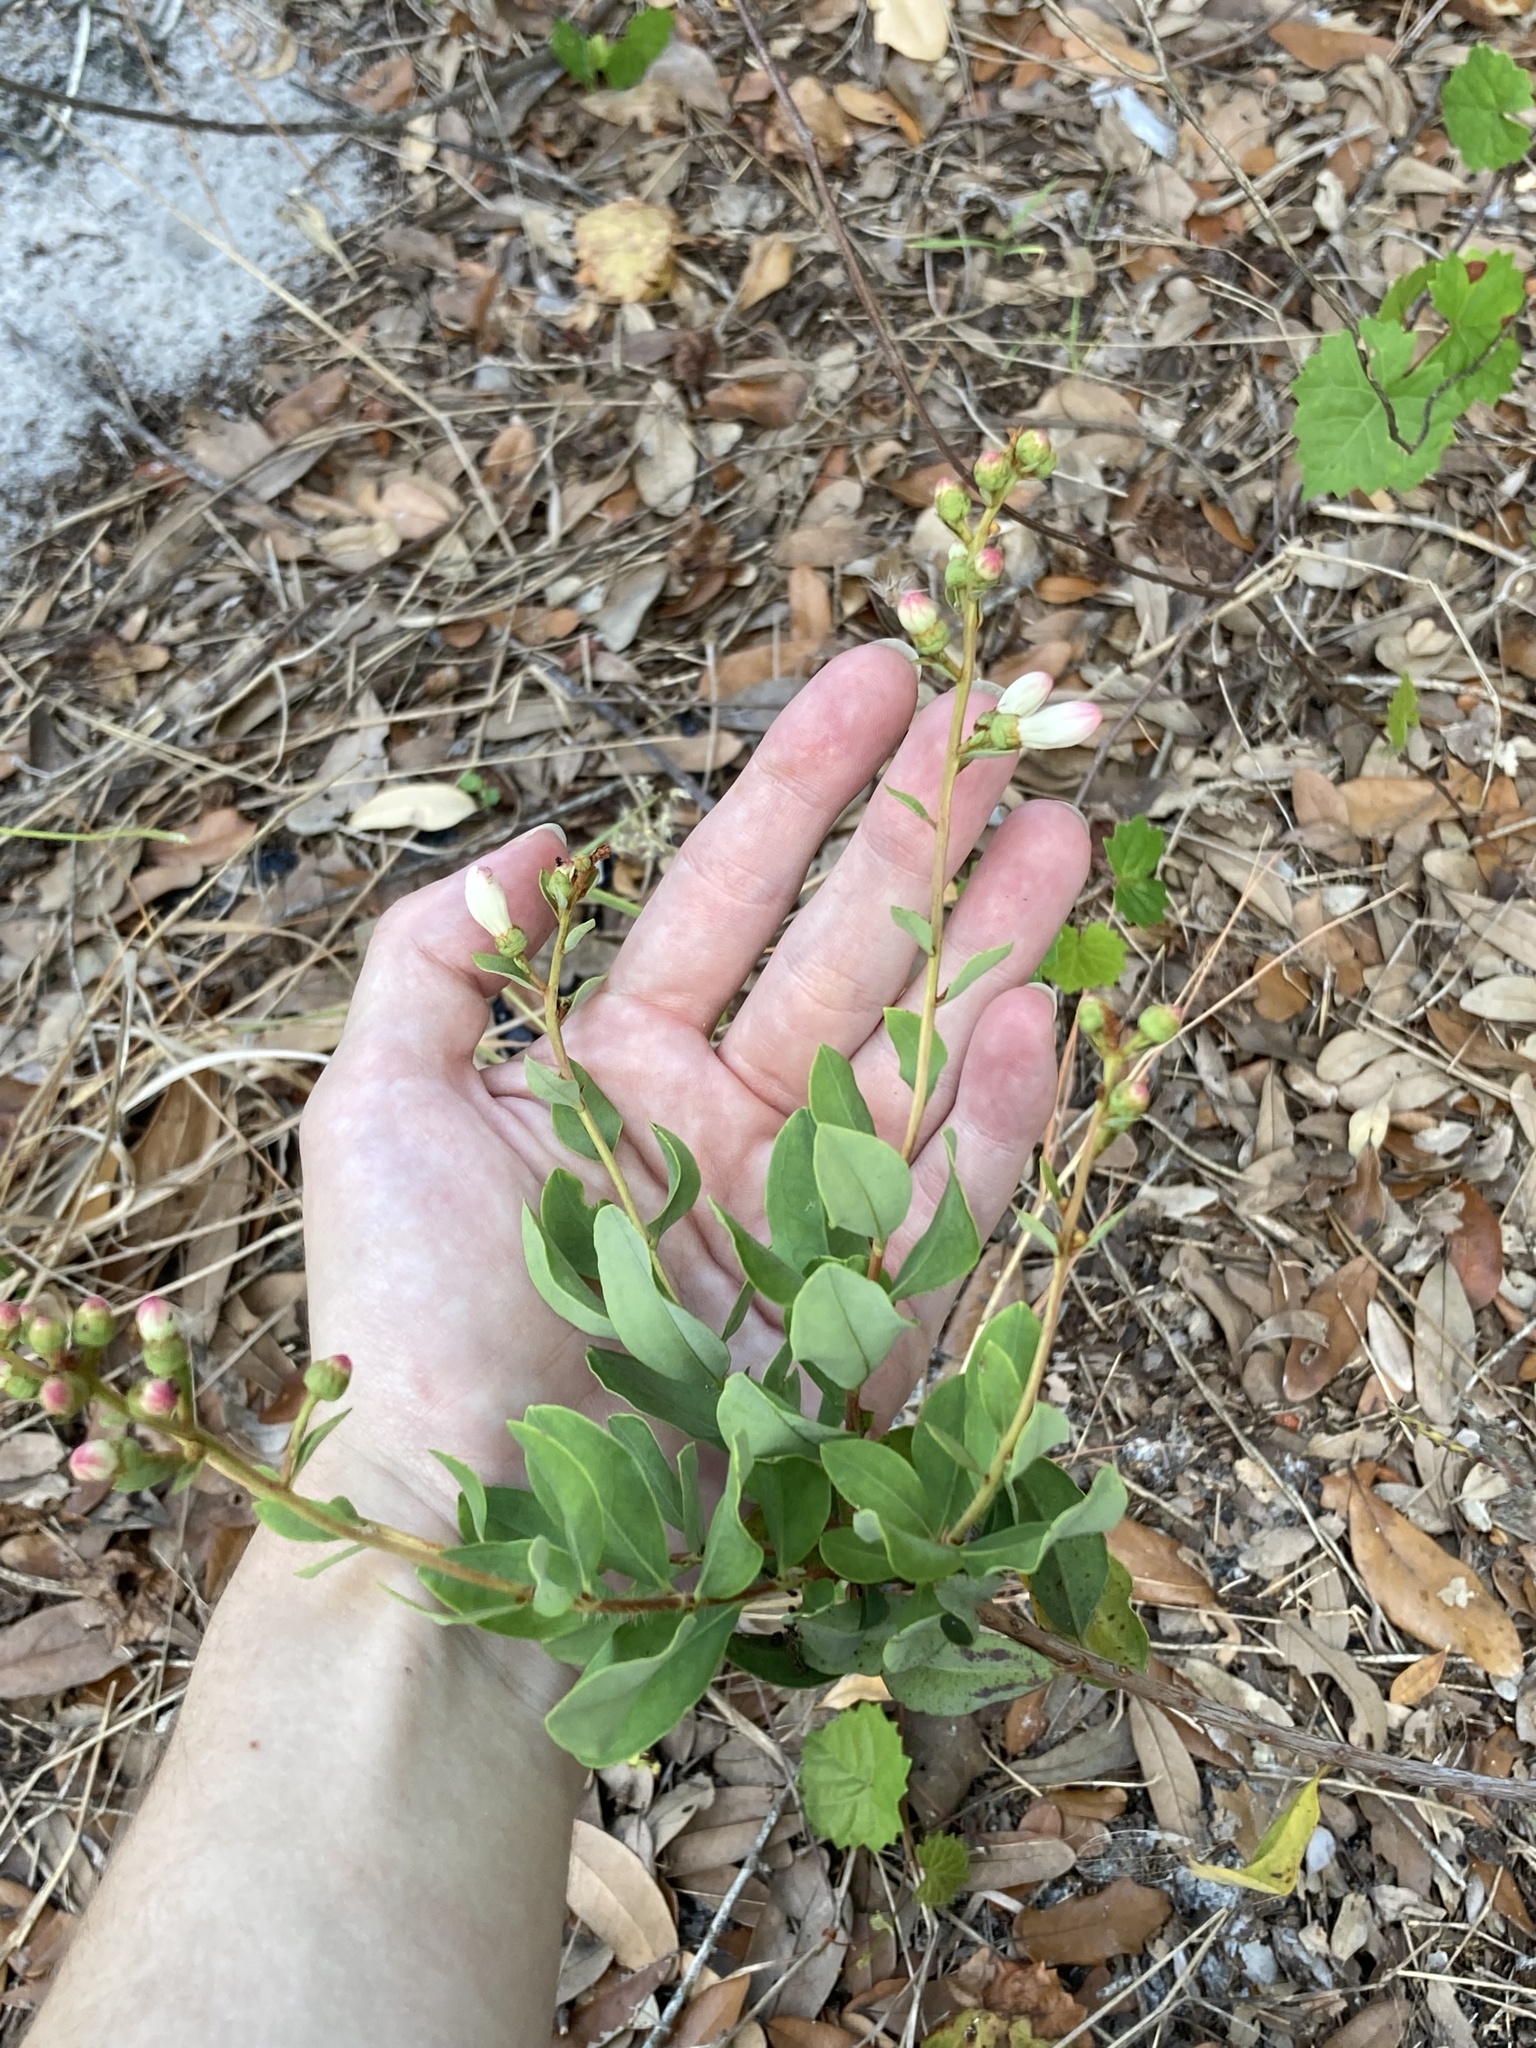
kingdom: Plantae
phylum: Tracheophyta
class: Magnoliopsida
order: Ericales
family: Ericaceae
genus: Bejaria
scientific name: Bejaria racemosa
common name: Tarflower
